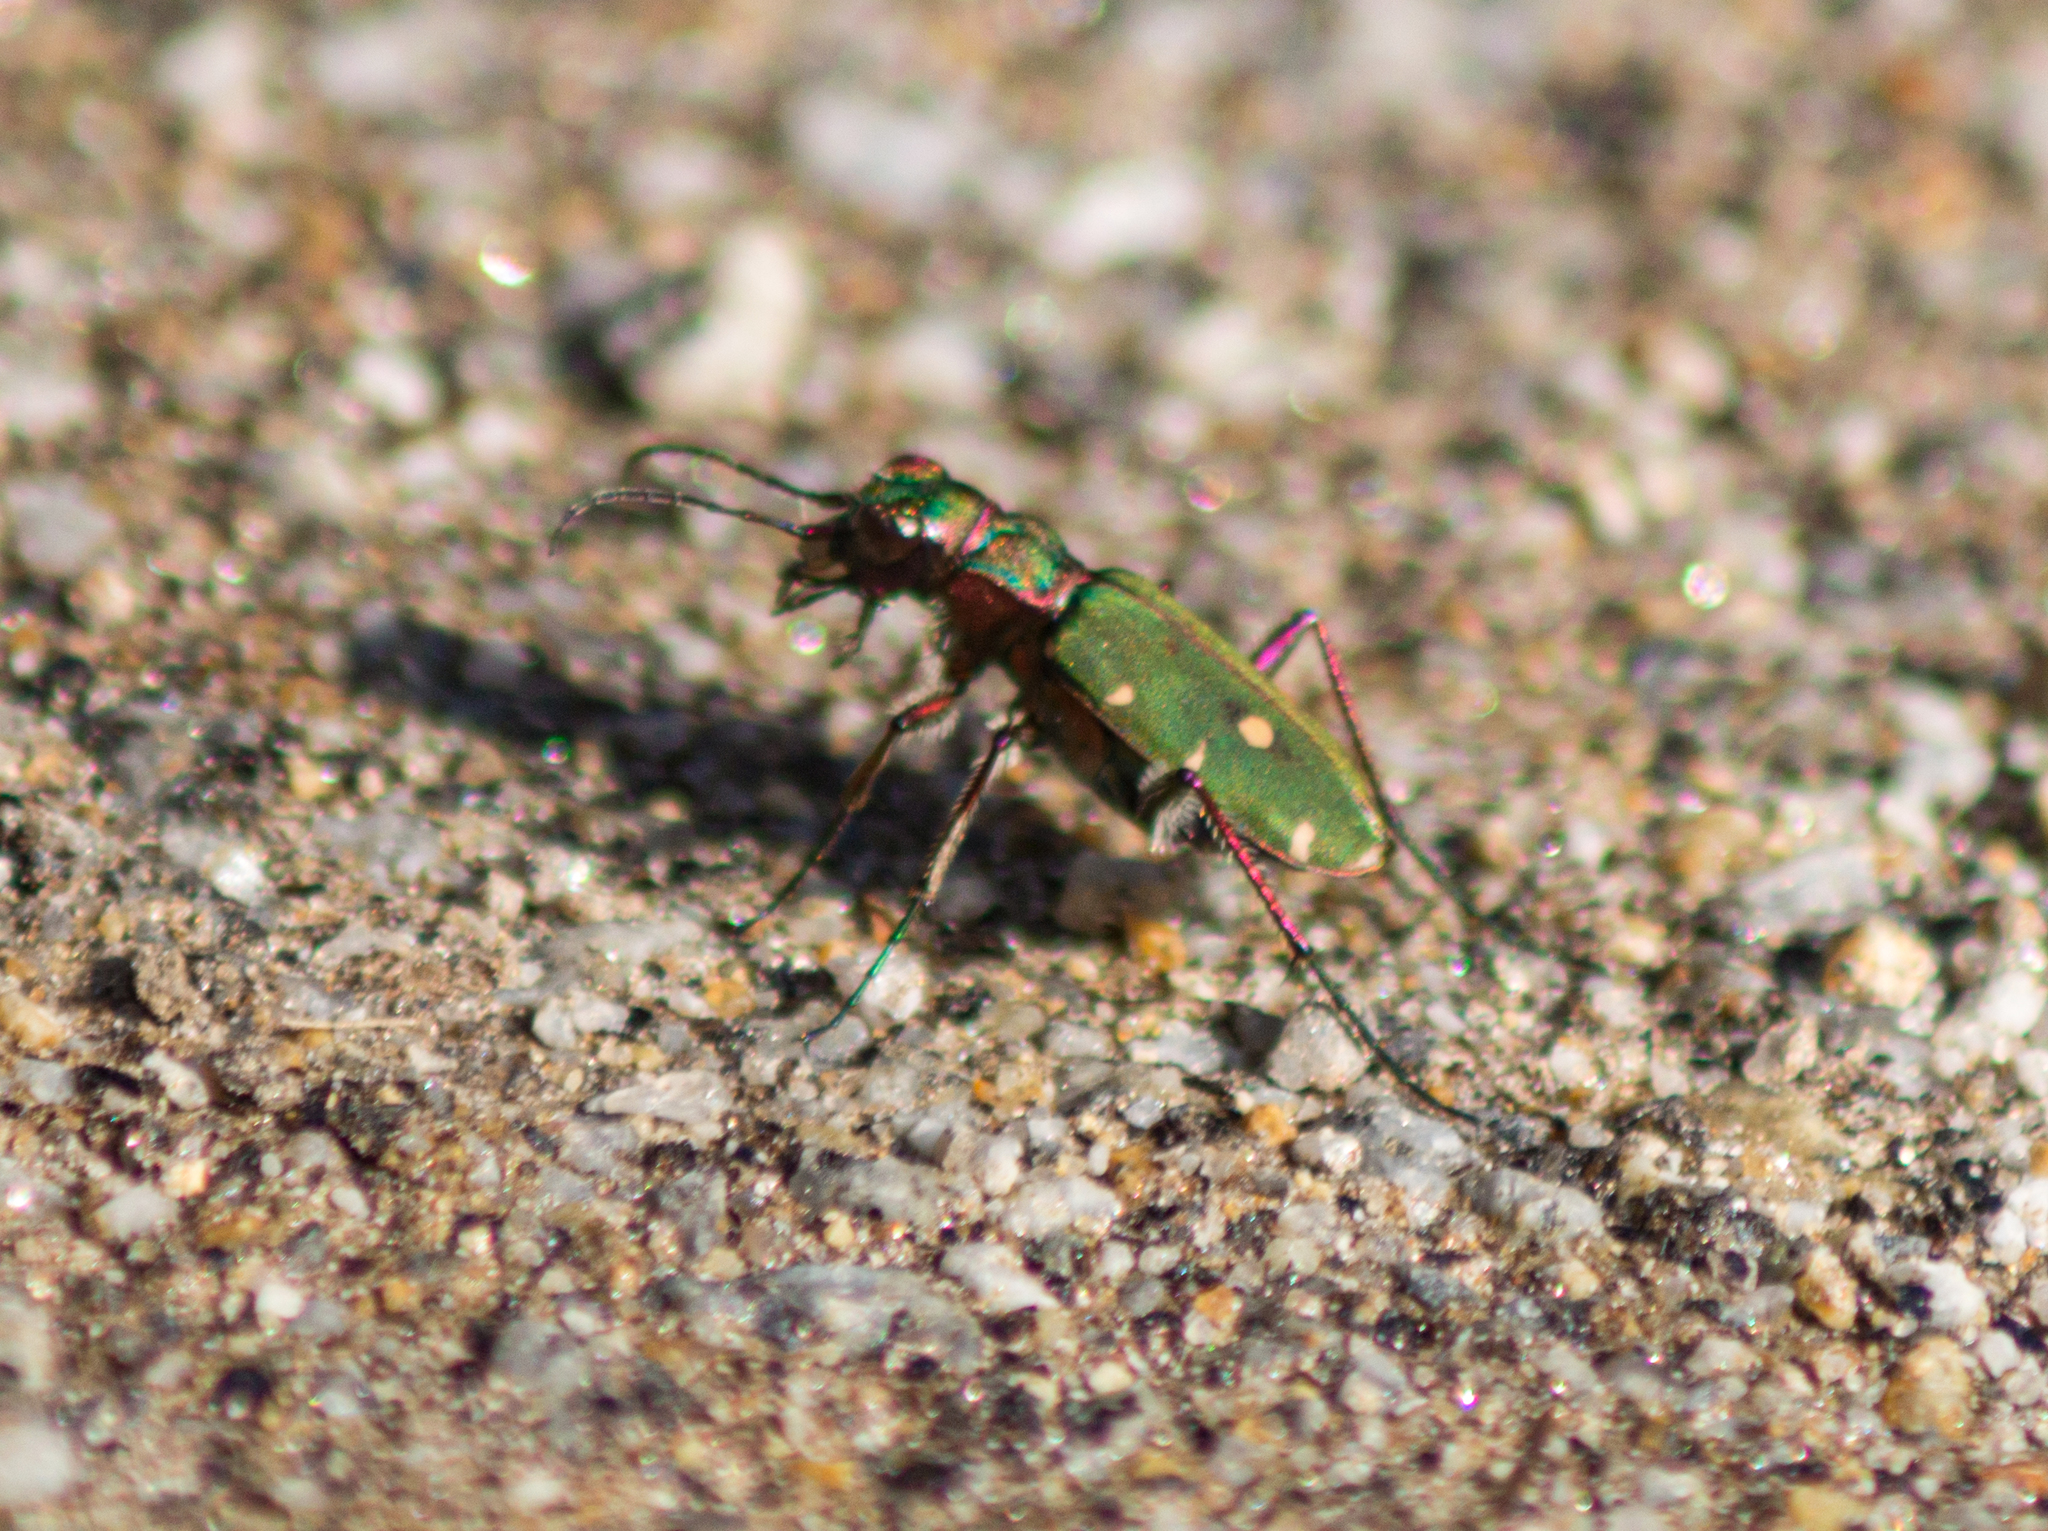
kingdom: Animalia
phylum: Arthropoda
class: Insecta
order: Coleoptera
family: Carabidae
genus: Cicindela
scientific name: Cicindela campestris
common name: Common tiger beetle
